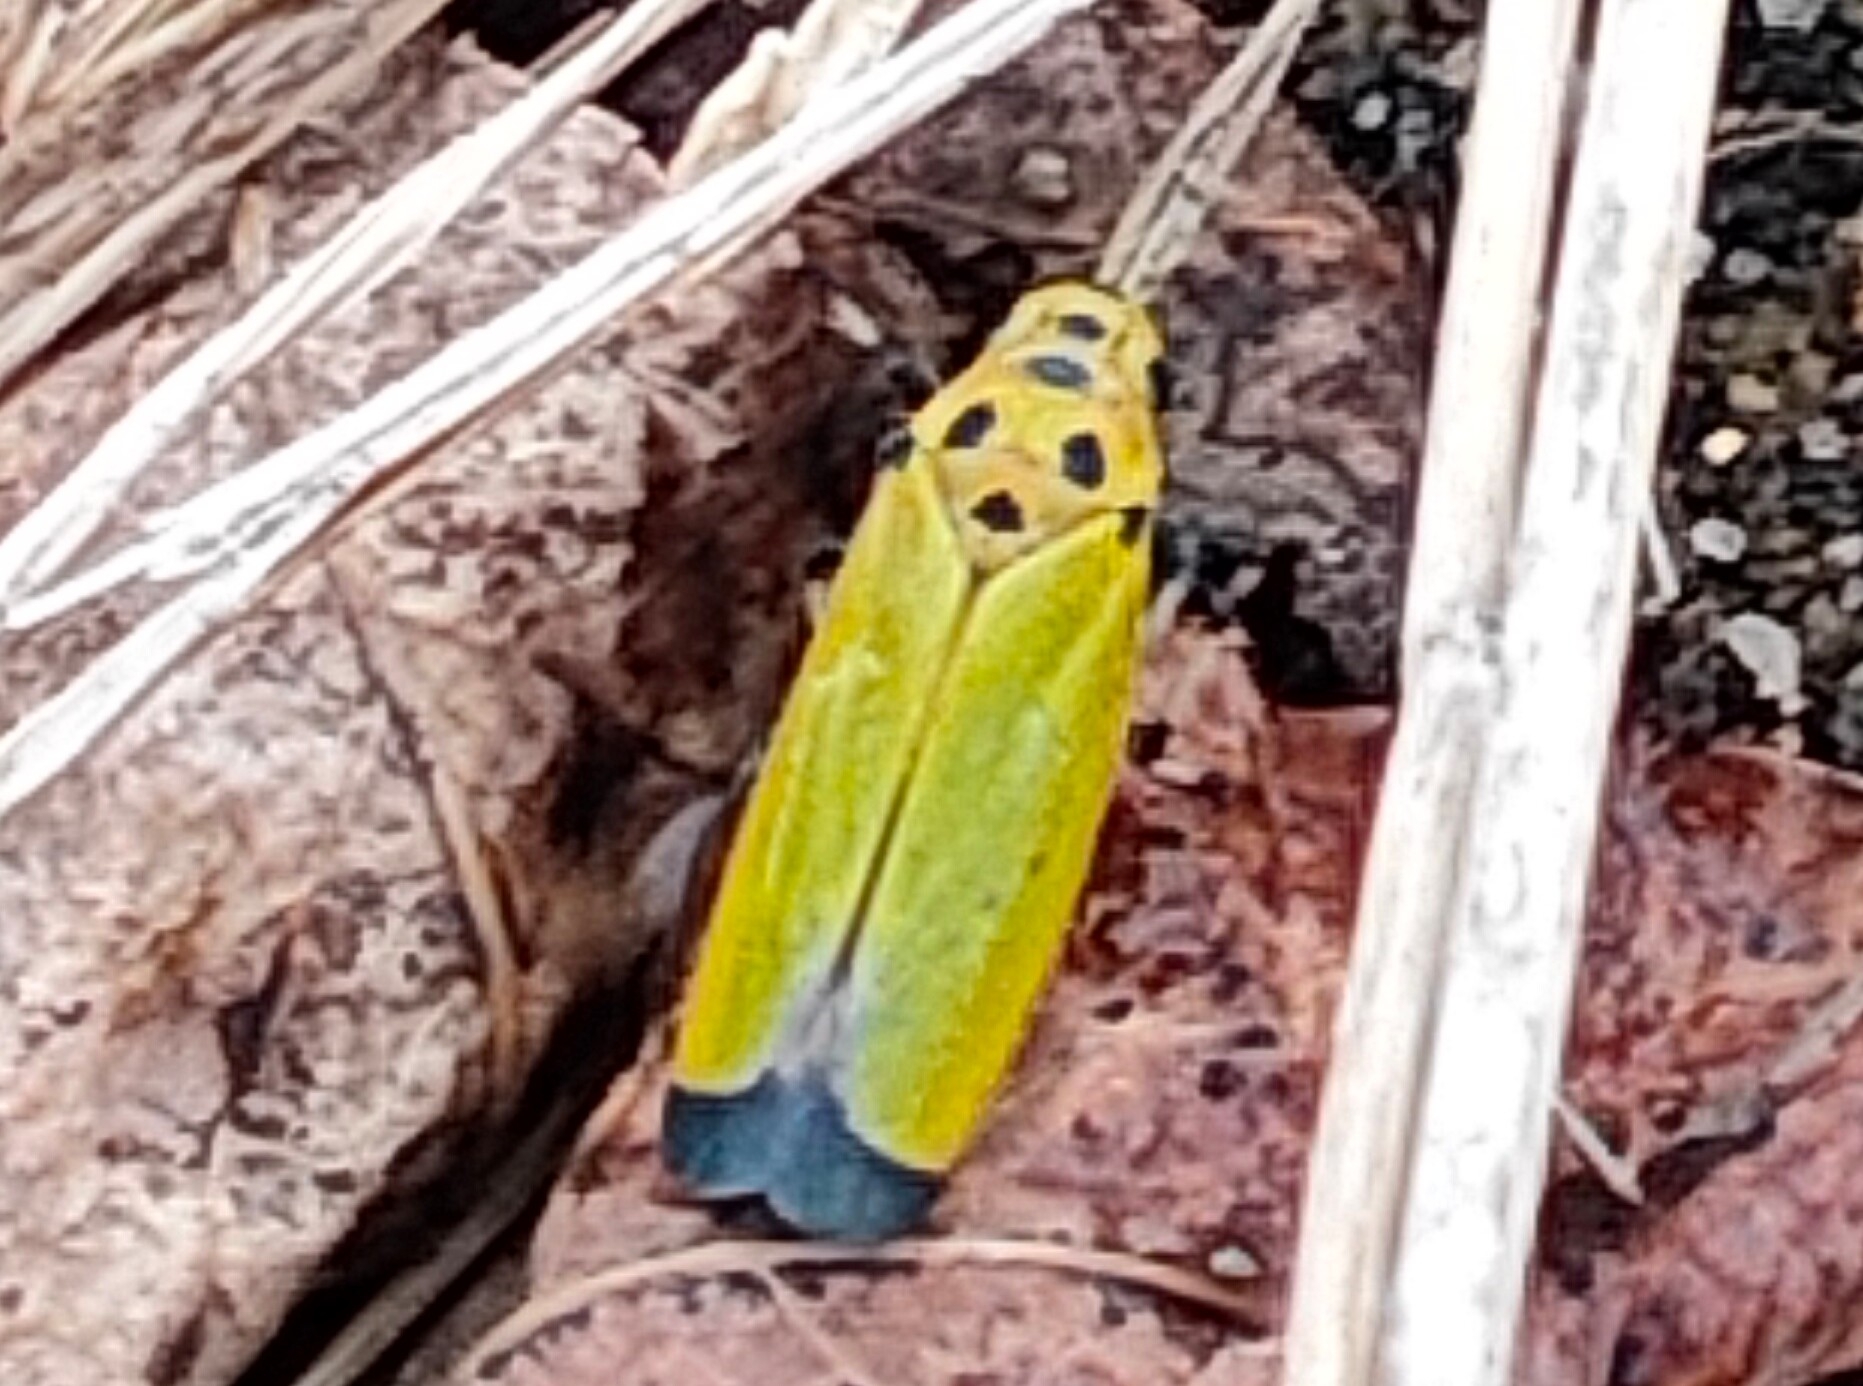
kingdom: Animalia
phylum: Arthropoda
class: Insecta
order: Hemiptera
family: Cicadellidae
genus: Bothrogonia
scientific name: Bothrogonia ferruginea
